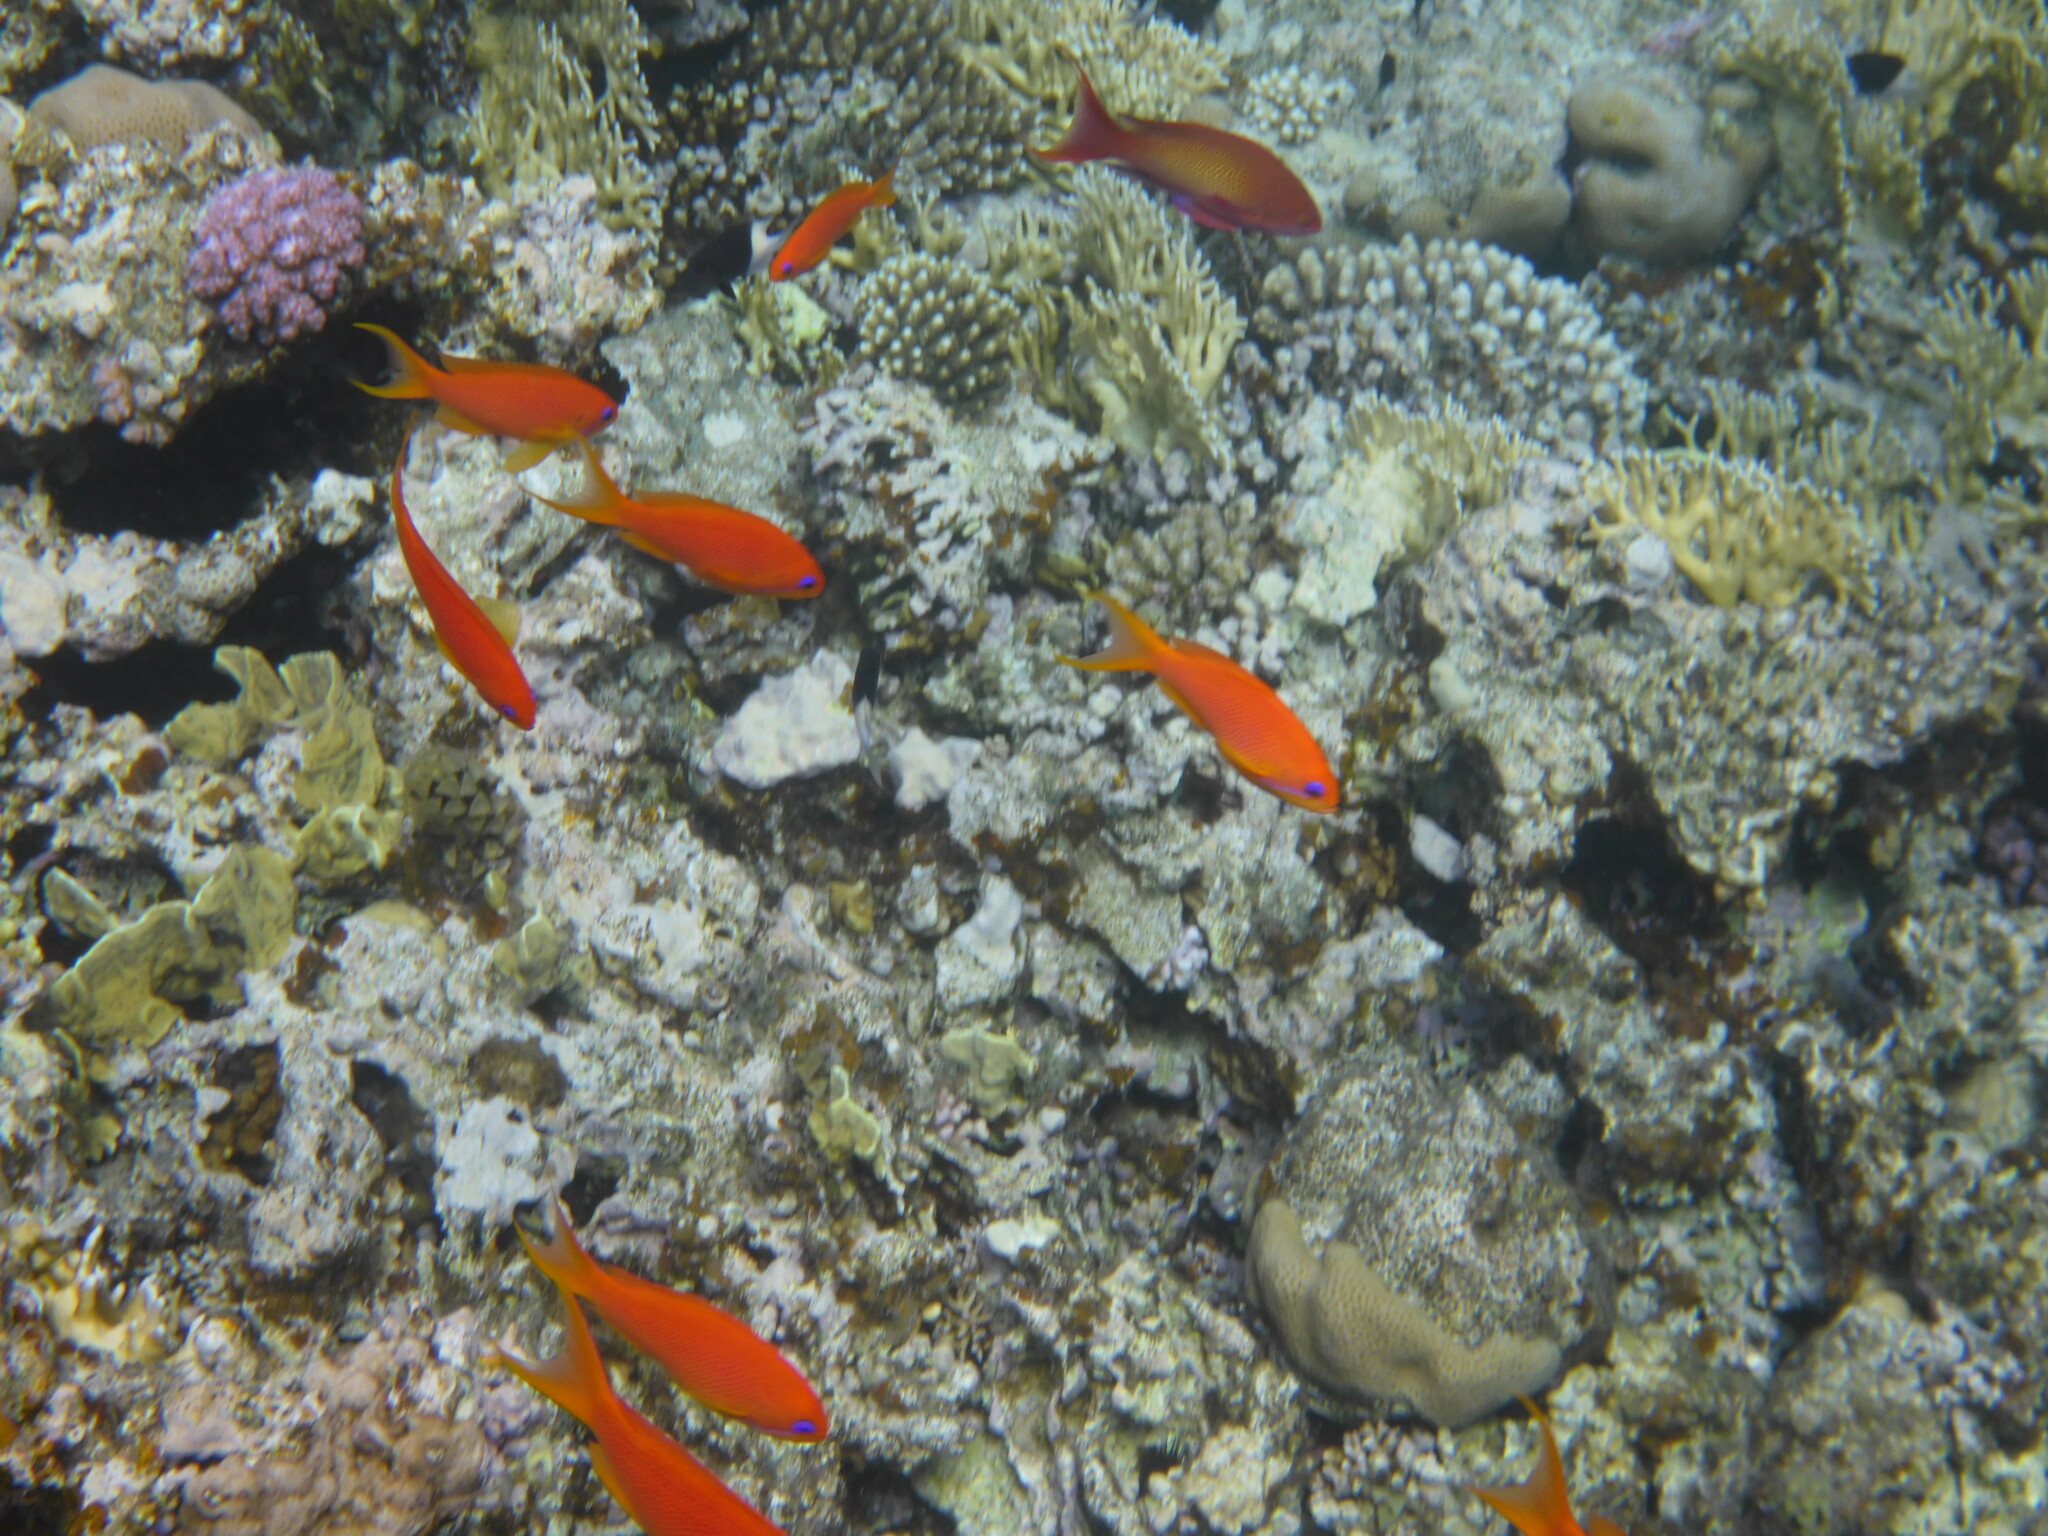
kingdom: Animalia
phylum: Chordata
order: Perciformes
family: Serranidae
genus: Pseudanthias
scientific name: Pseudanthias squamipinnis
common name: Scalefin anthias
